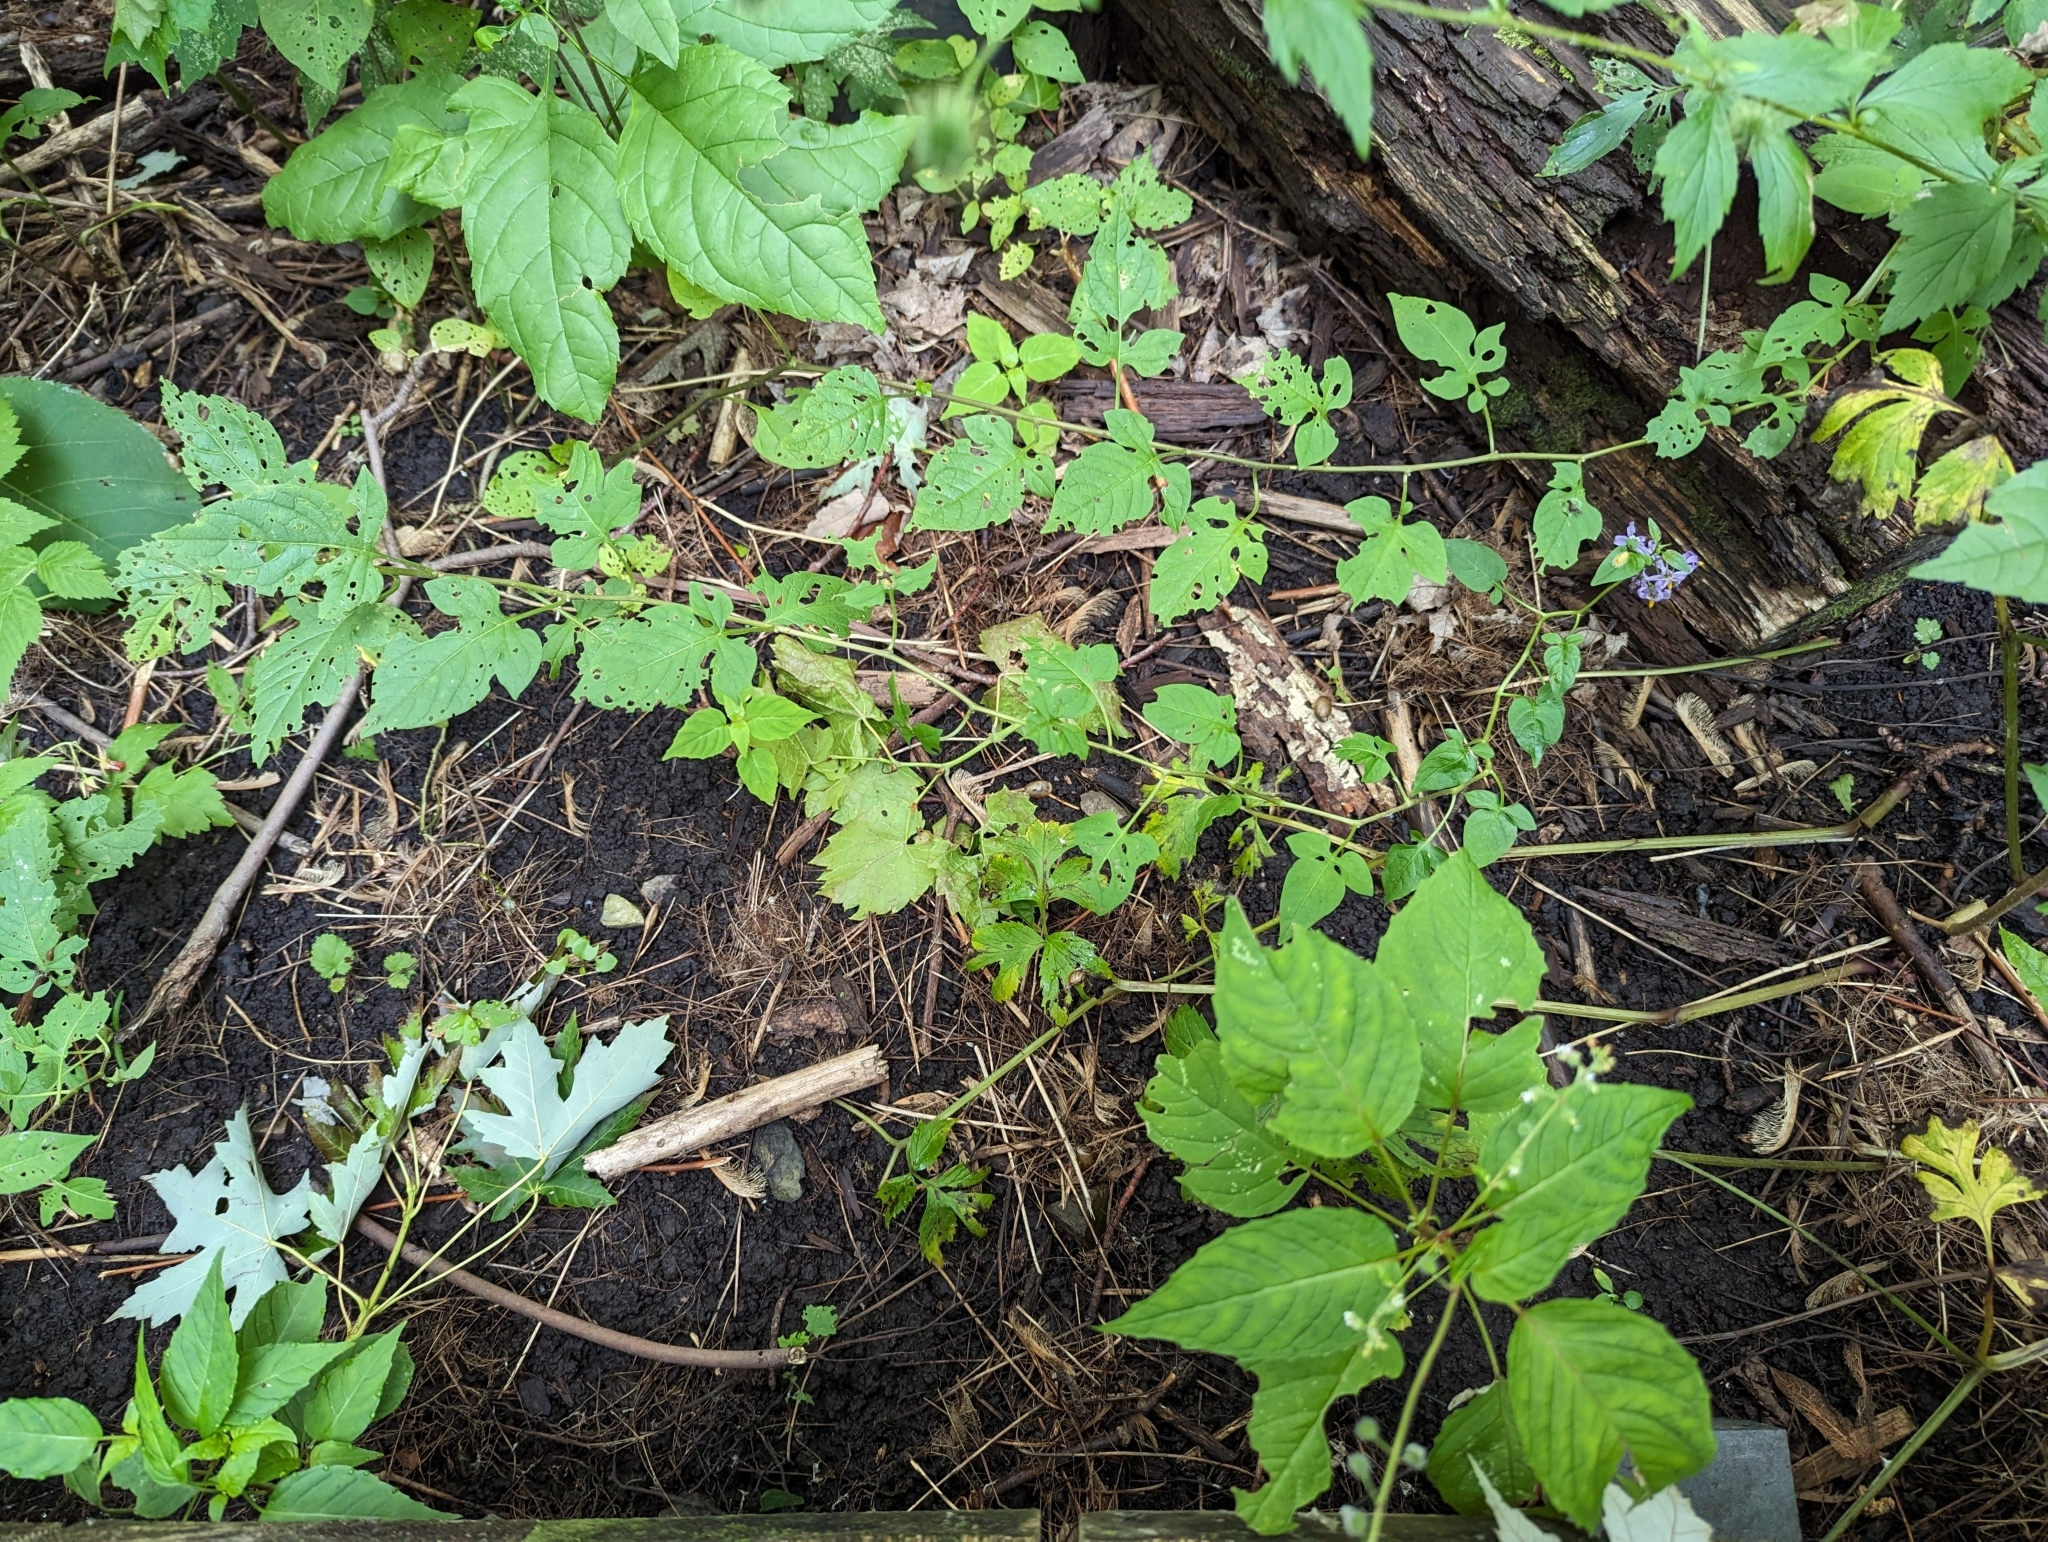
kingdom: Plantae
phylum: Tracheophyta
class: Magnoliopsida
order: Solanales
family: Solanaceae
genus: Solanum
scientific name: Solanum dulcamara
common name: Climbing nightshade
